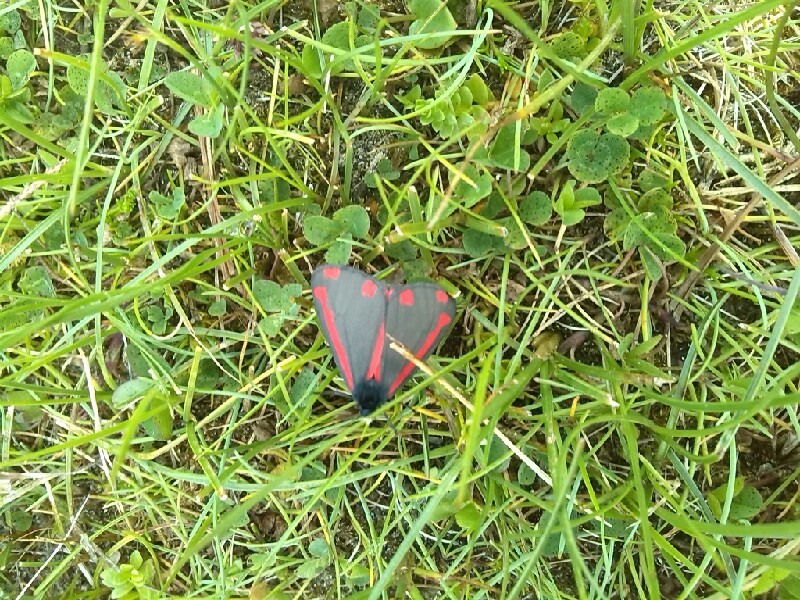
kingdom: Animalia
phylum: Arthropoda
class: Insecta
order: Lepidoptera
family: Erebidae
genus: Tyria
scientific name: Tyria jacobaeae
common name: Cinnabar
